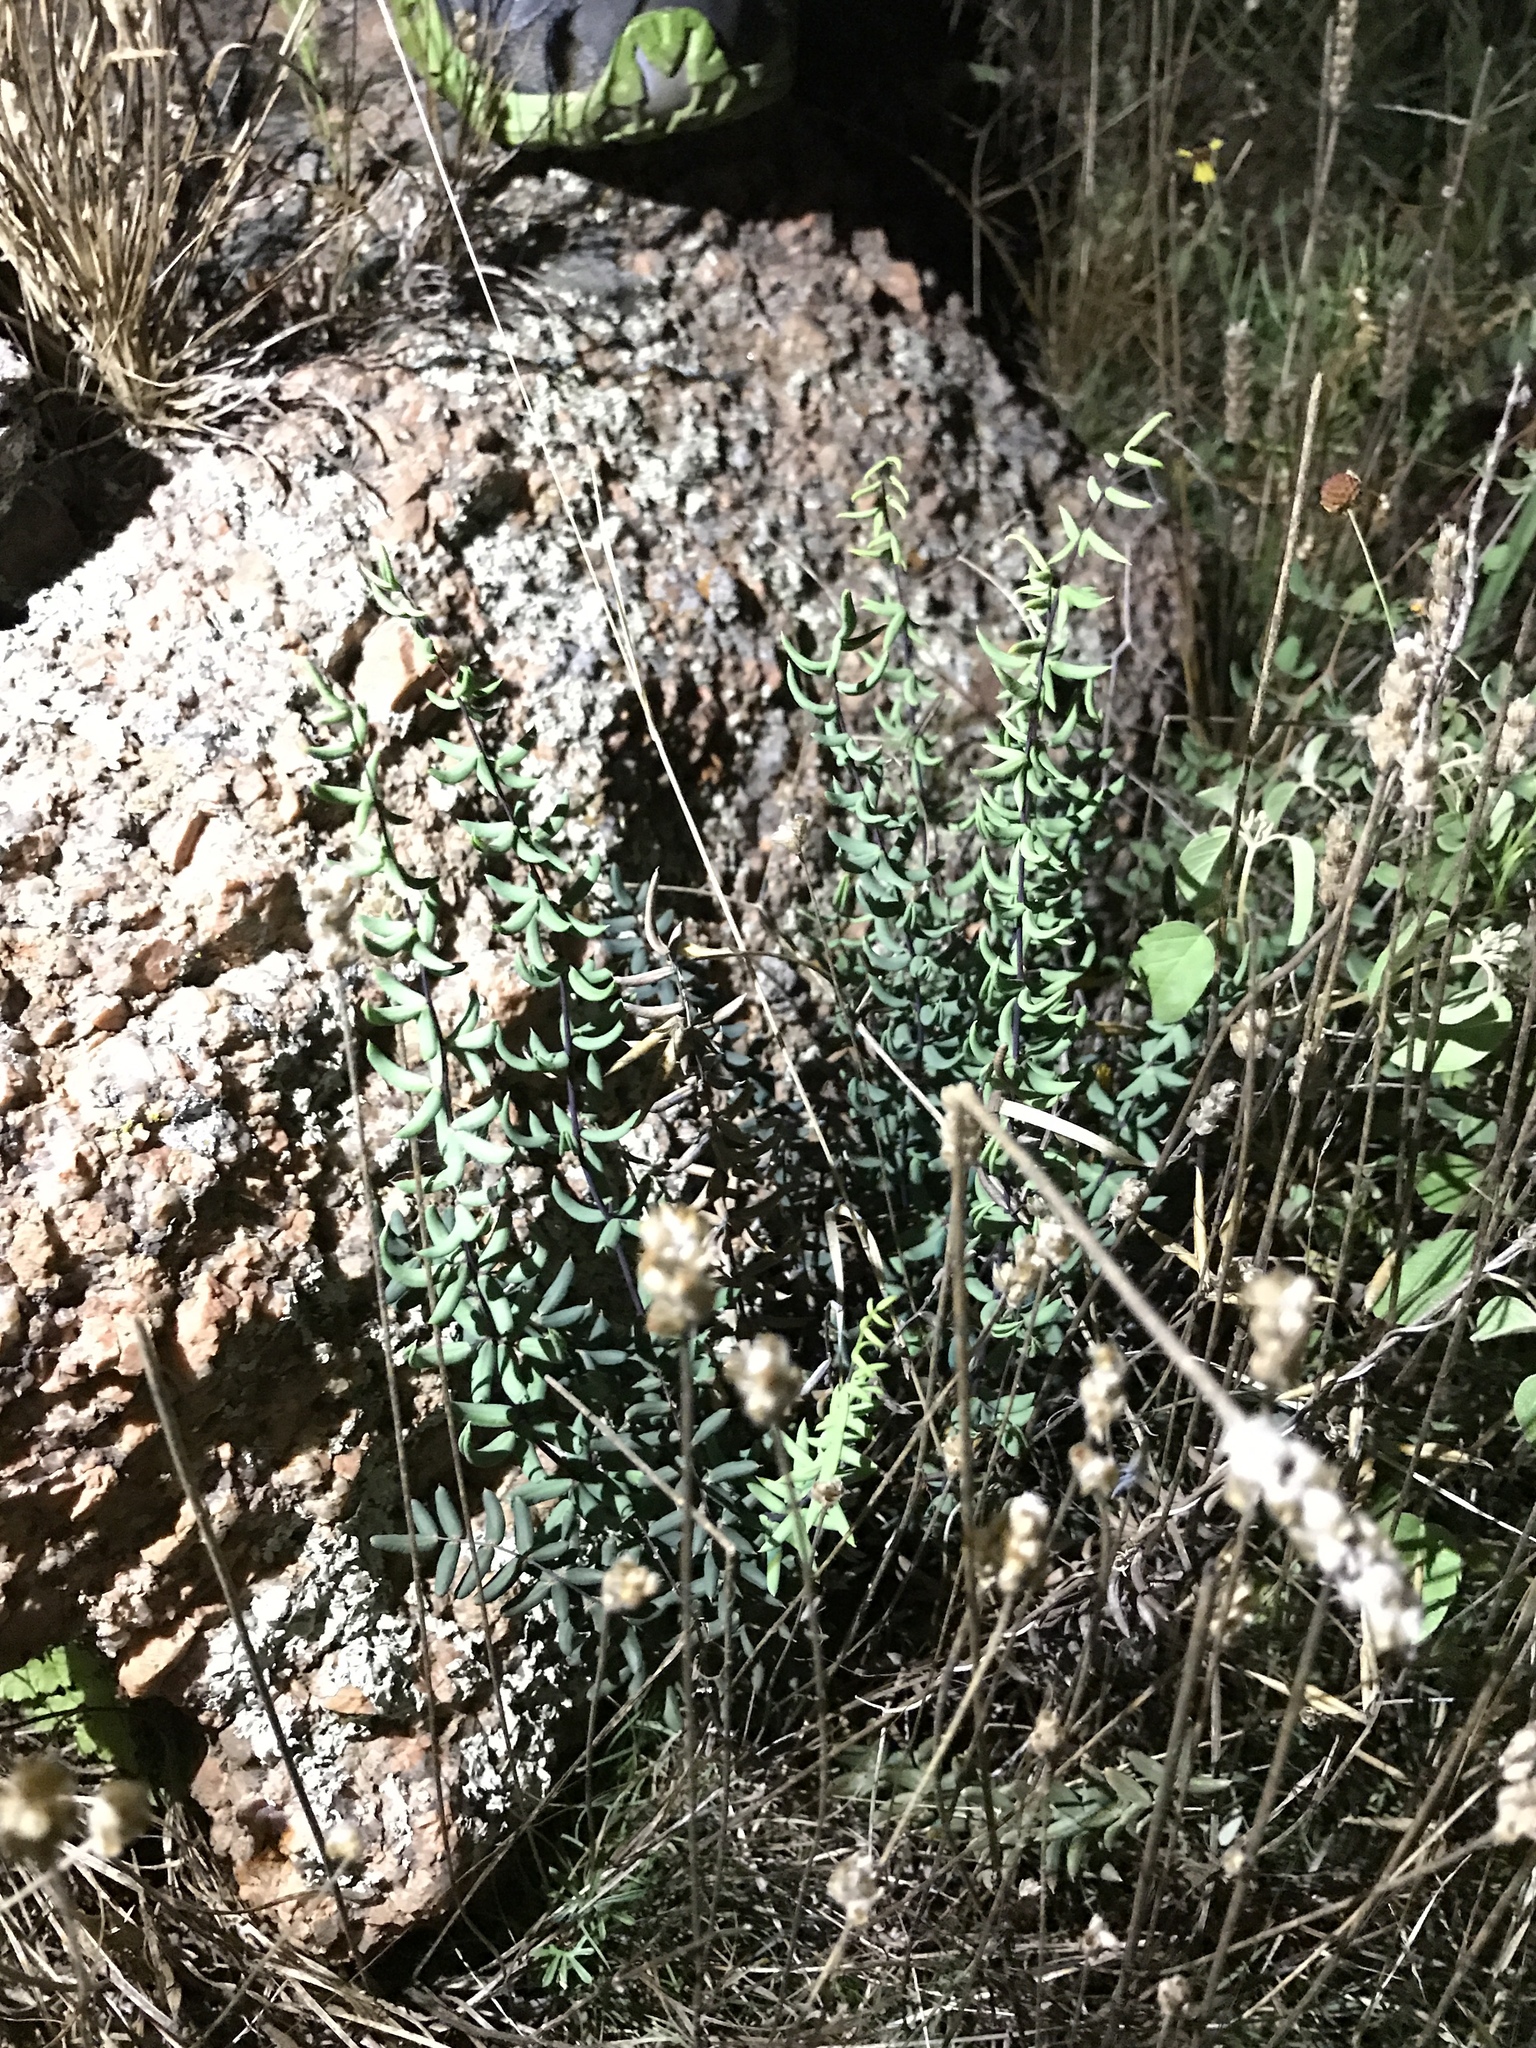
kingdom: Plantae
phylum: Tracheophyta
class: Polypodiopsida
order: Polypodiales
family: Pteridaceae
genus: Pellaea
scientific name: Pellaea wrightiana
